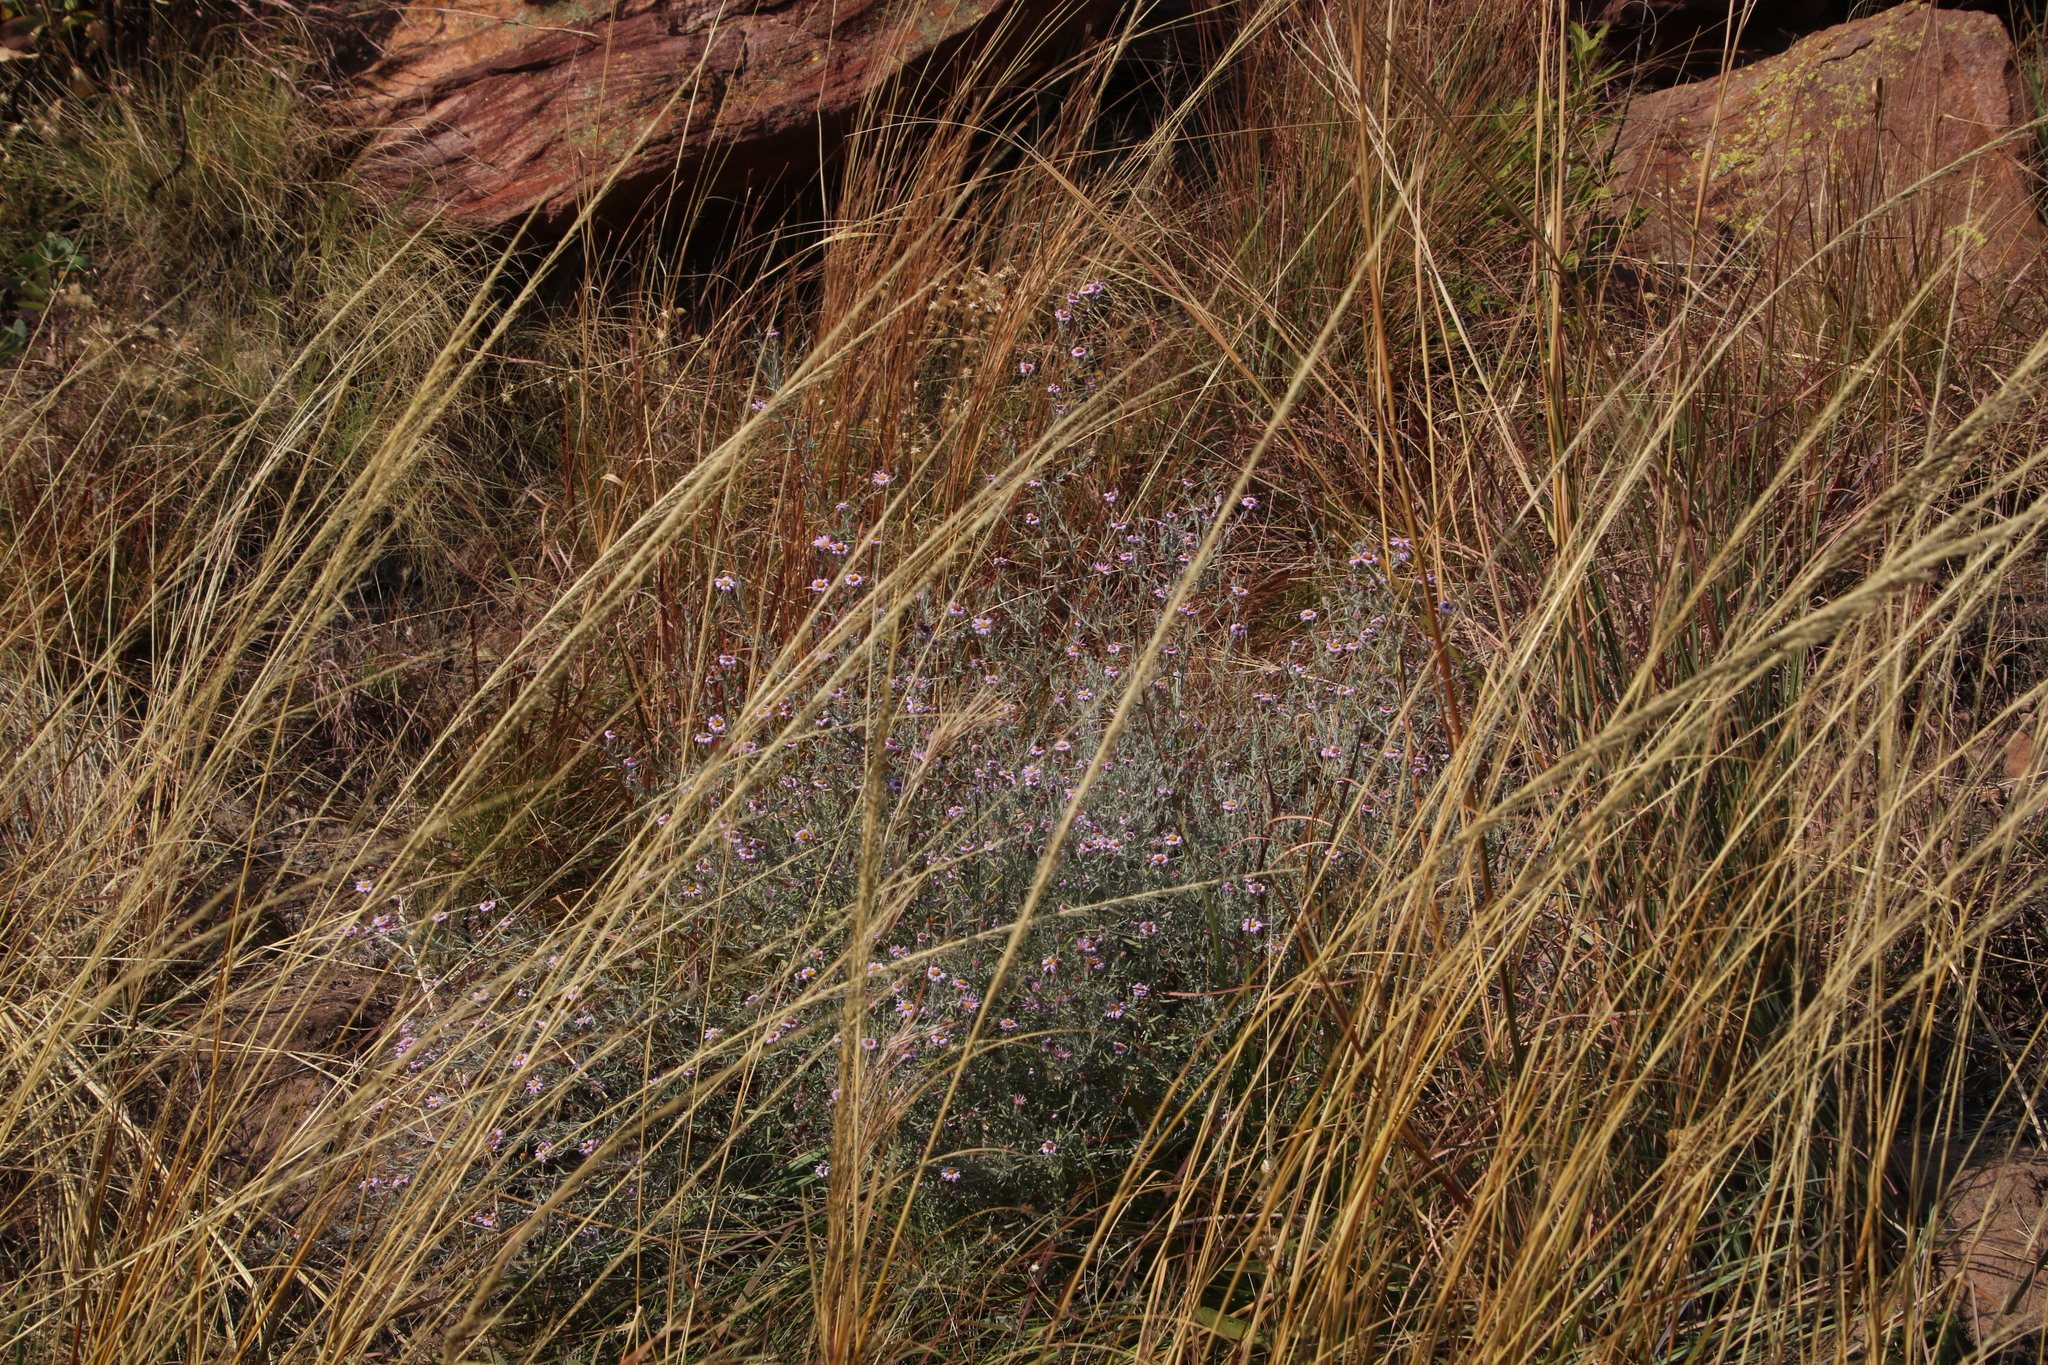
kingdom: Plantae
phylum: Tracheophyta
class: Magnoliopsida
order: Asterales
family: Asteraceae
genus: Athrixia
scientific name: Athrixia elata
